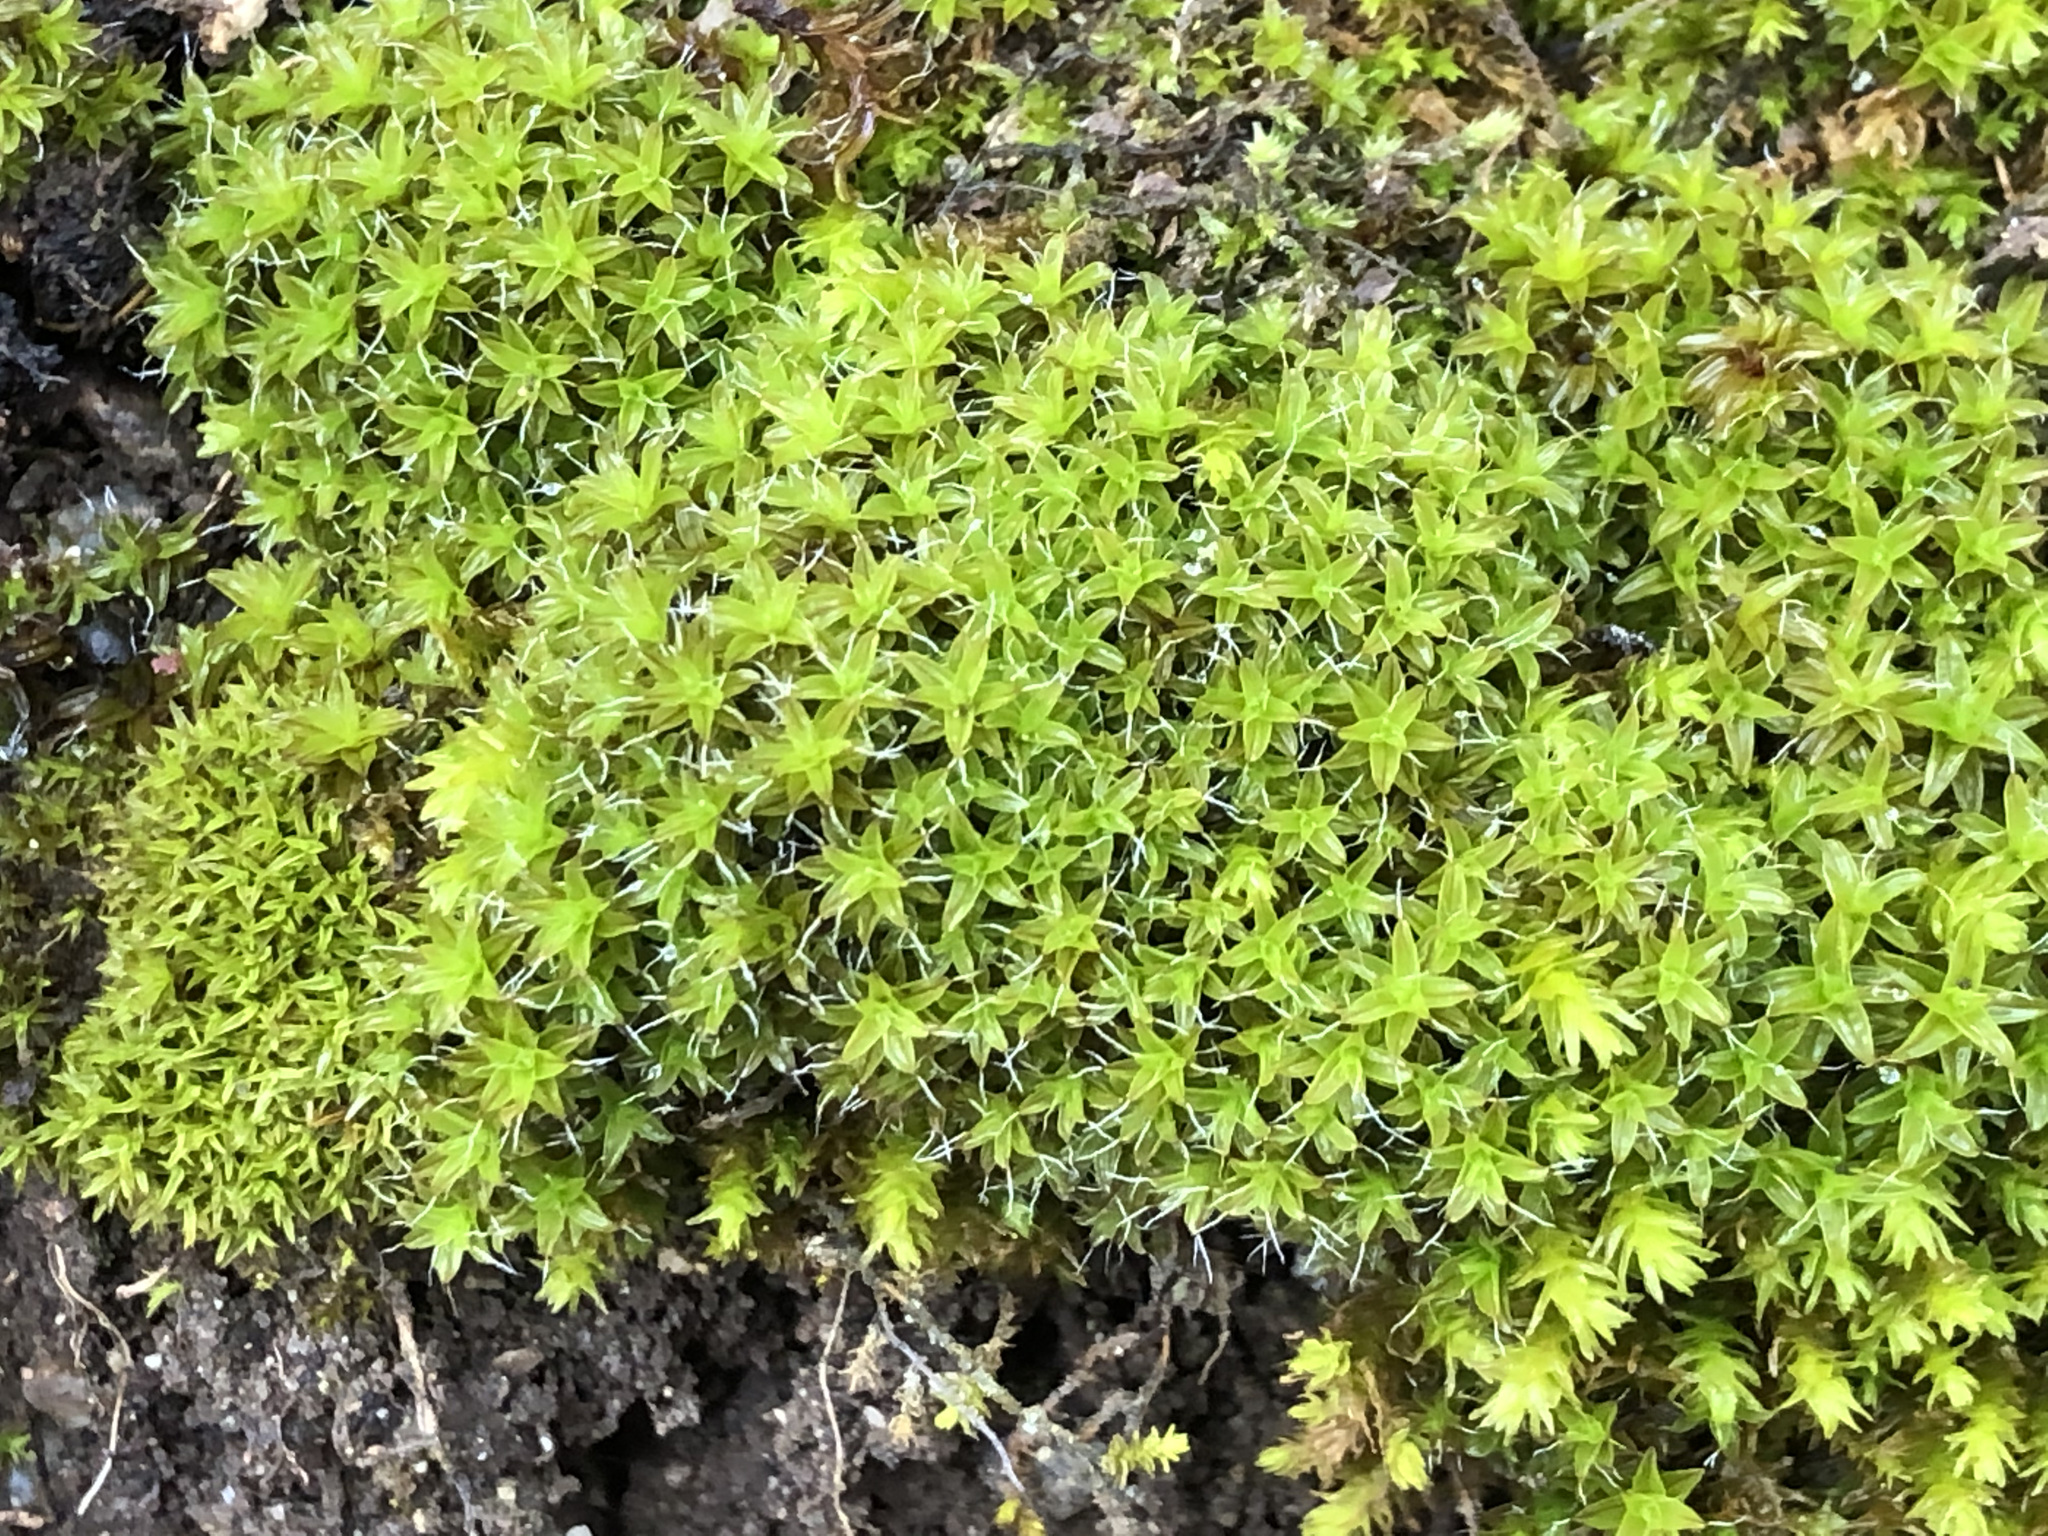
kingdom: Plantae
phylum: Bryophyta
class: Bryopsida
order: Pottiales
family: Pottiaceae
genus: Syntrichia
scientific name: Syntrichia ruralis
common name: Sidewalk screw moss
